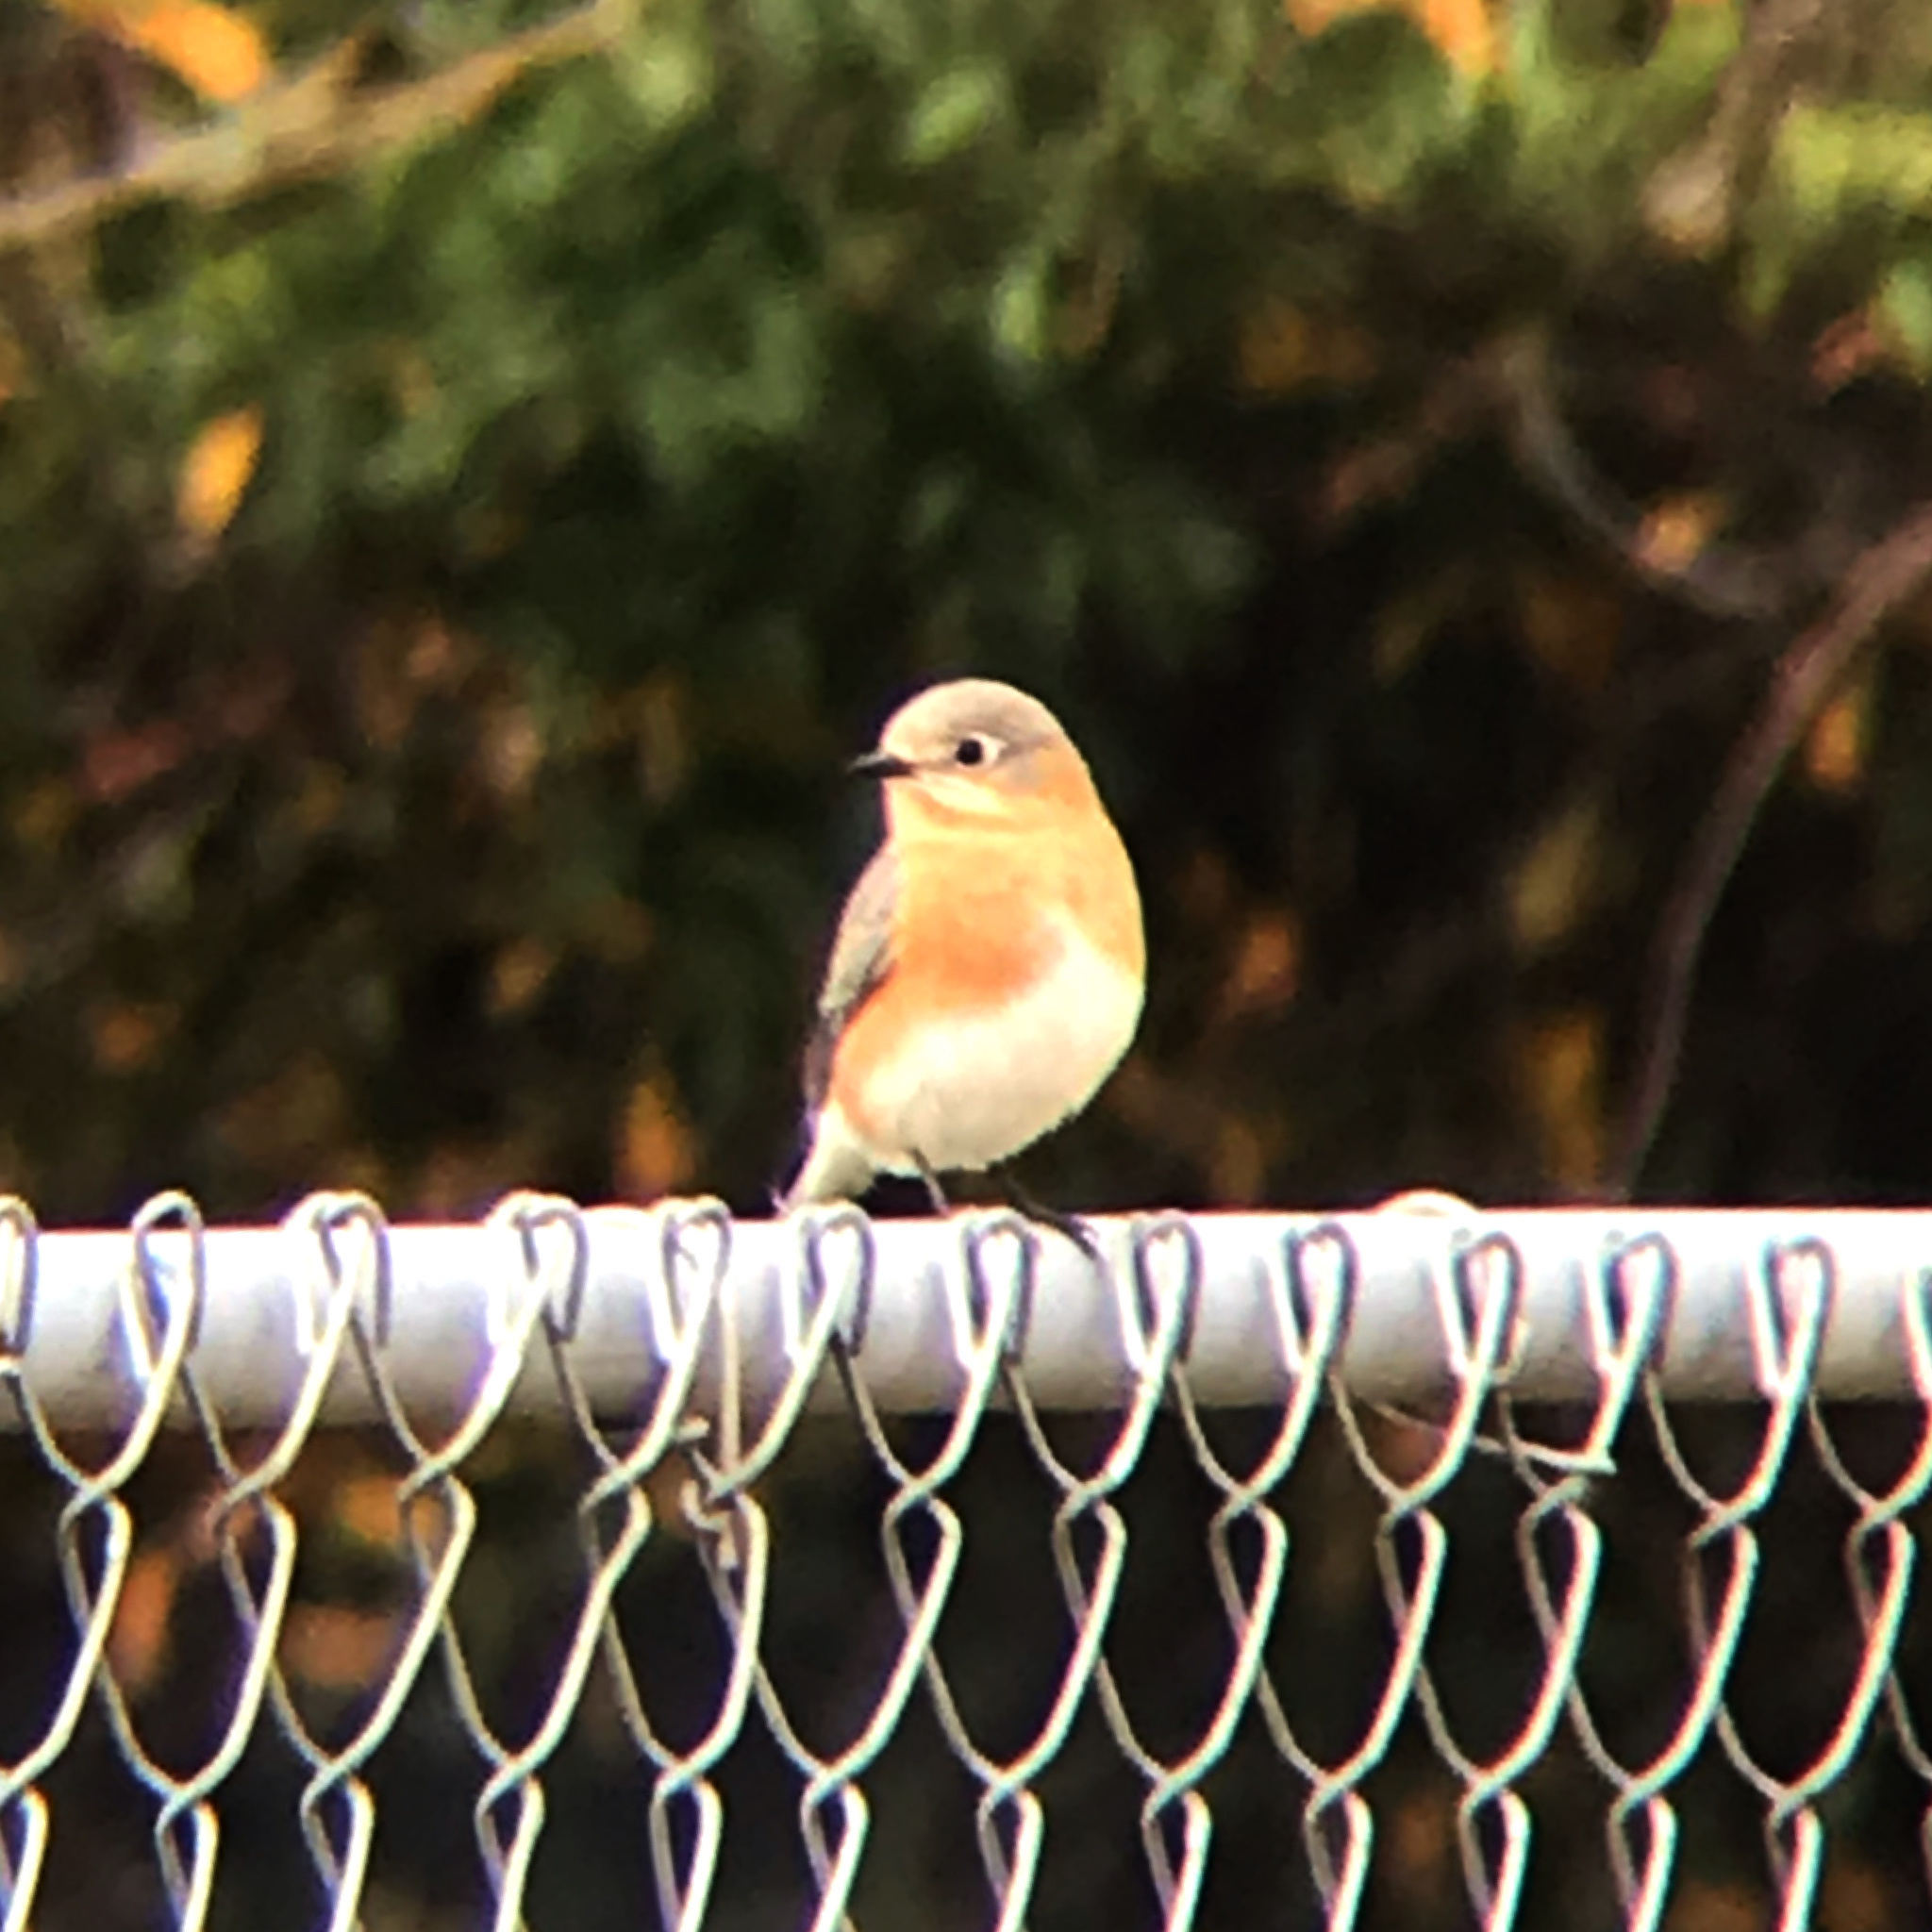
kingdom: Animalia
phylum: Chordata
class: Aves
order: Passeriformes
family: Turdidae
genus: Sialia
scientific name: Sialia sialis
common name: Eastern bluebird
